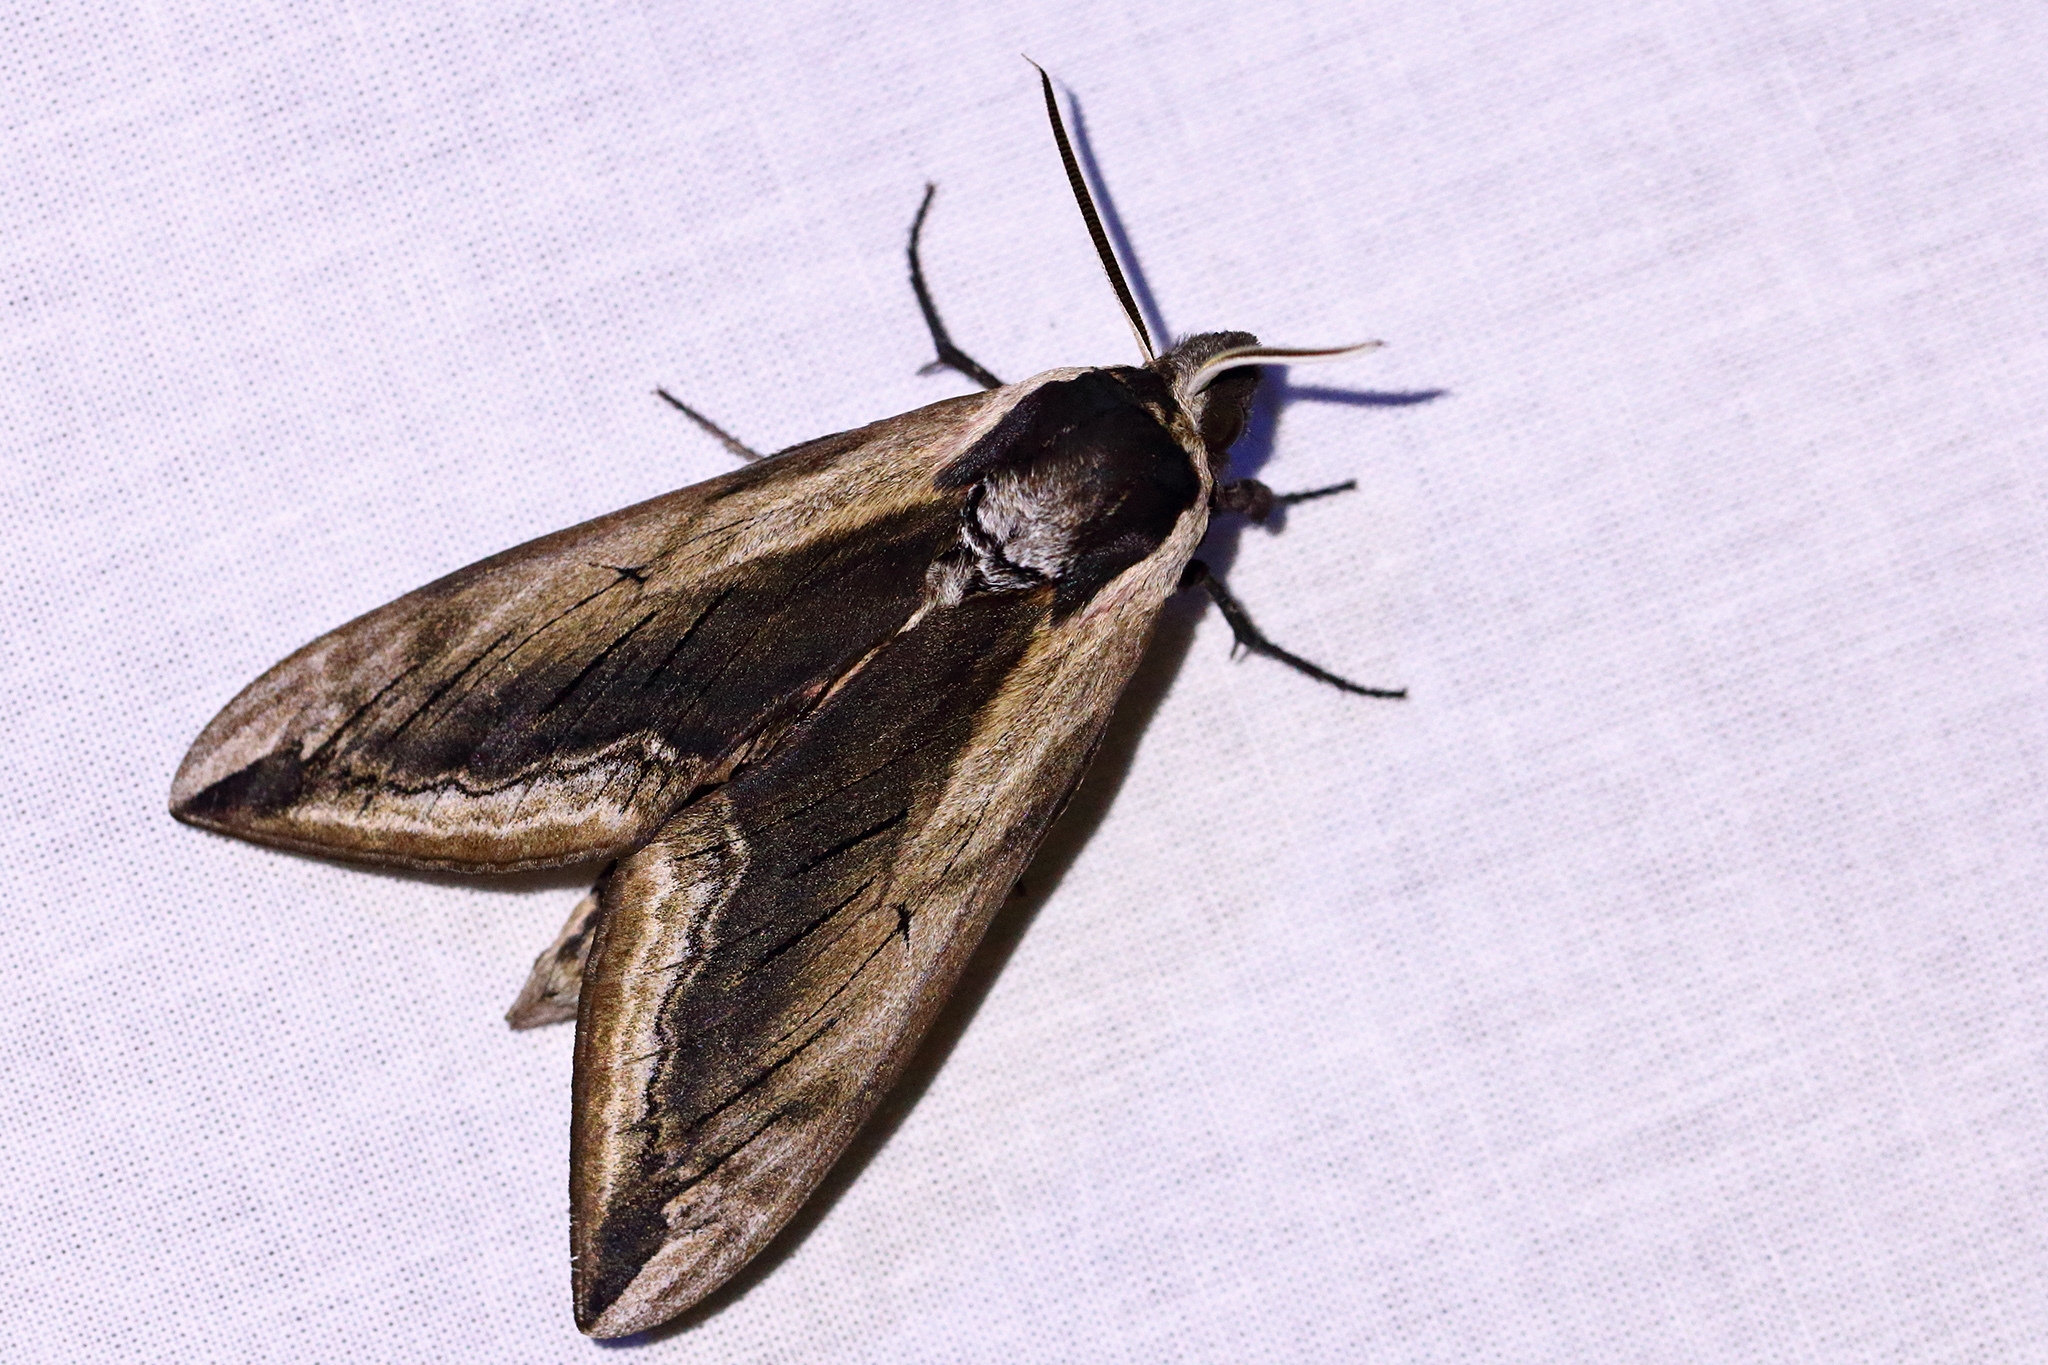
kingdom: Animalia
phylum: Arthropoda
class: Insecta
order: Lepidoptera
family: Sphingidae
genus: Sphinx
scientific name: Sphinx ligustri
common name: Privet hawk-moth
